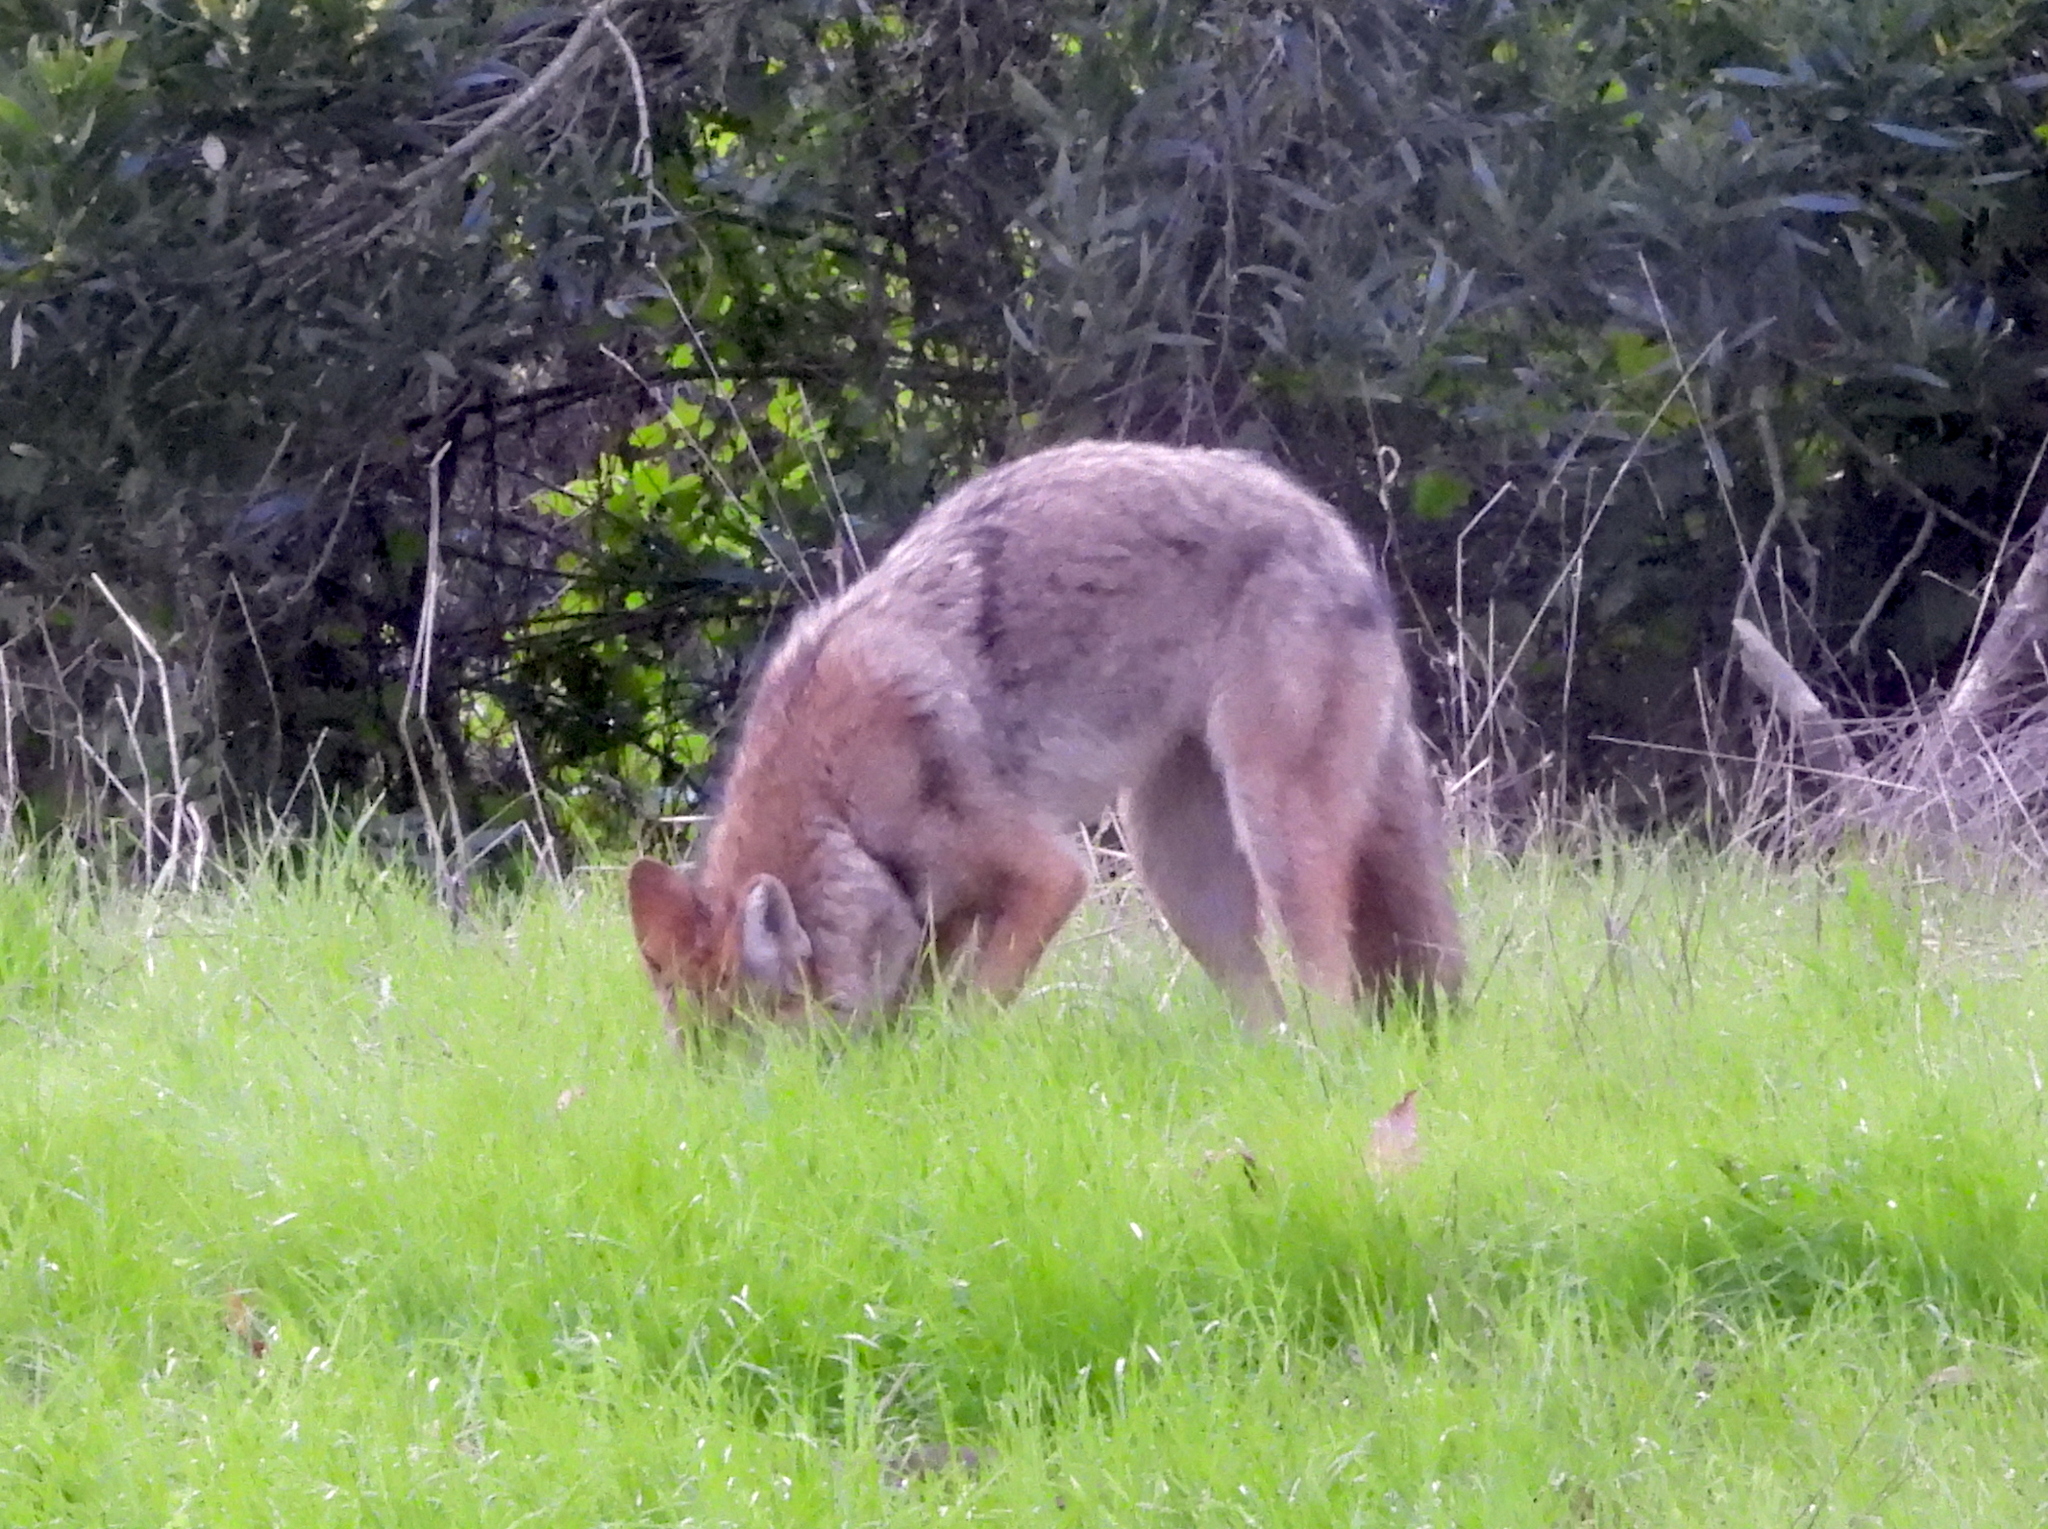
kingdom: Animalia
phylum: Chordata
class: Mammalia
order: Carnivora
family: Canidae
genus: Canis
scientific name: Canis latrans
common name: Coyote
